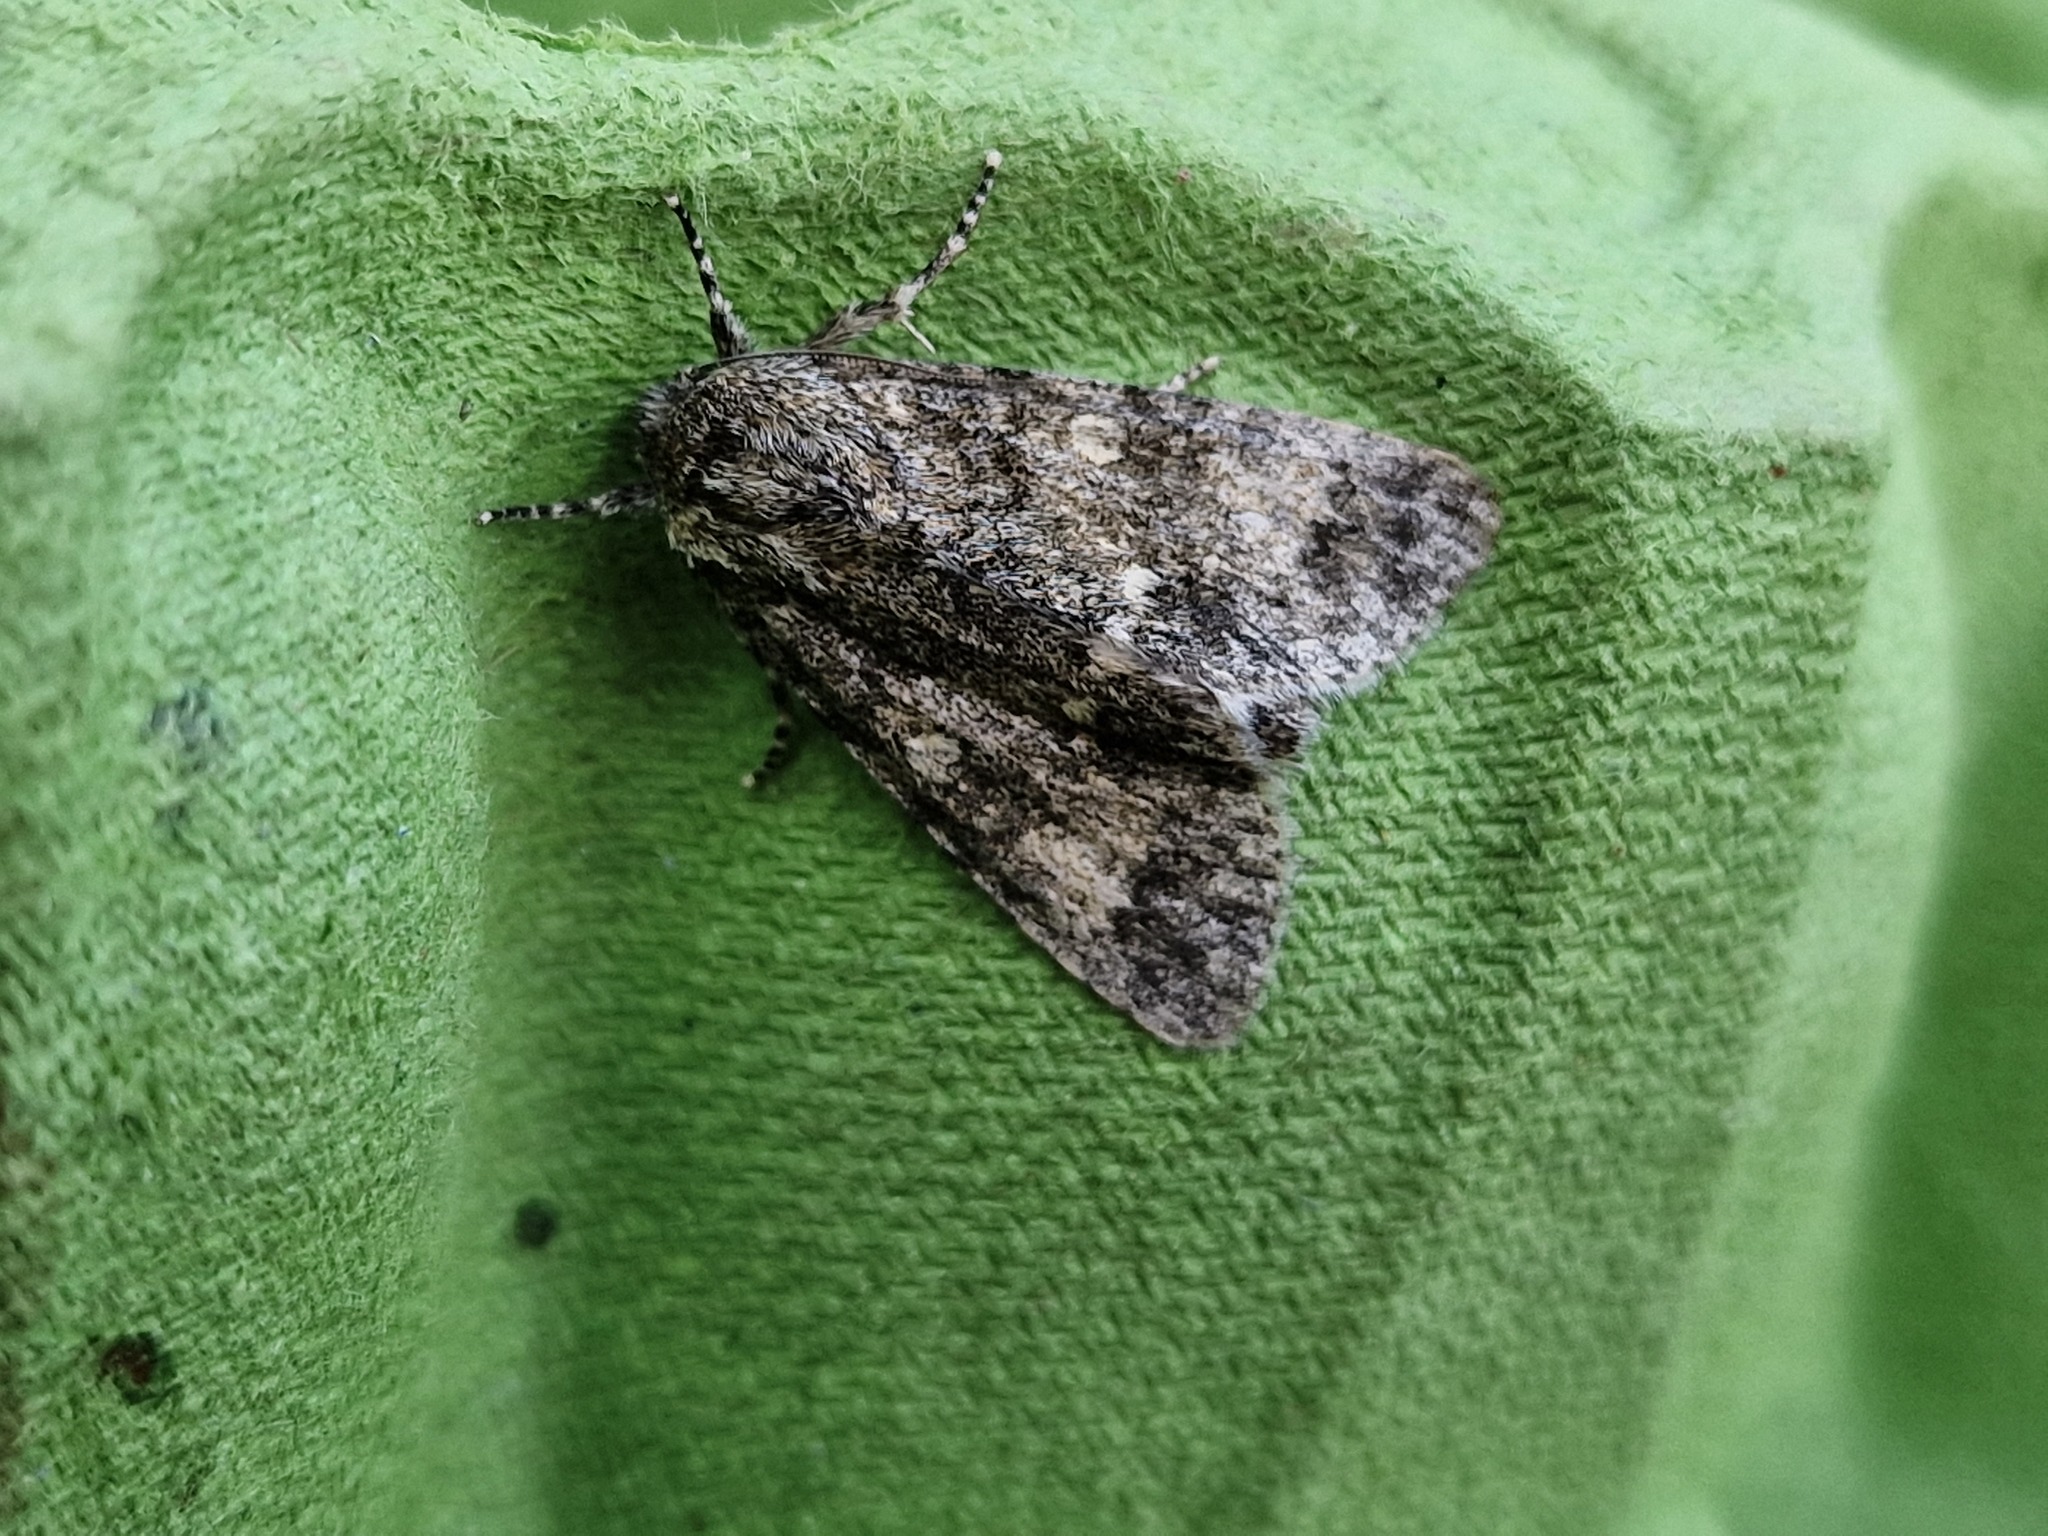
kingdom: Animalia
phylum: Arthropoda
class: Insecta
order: Lepidoptera
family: Noctuidae
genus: Acronicta
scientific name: Acronicta megacephala
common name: Poplar grey
